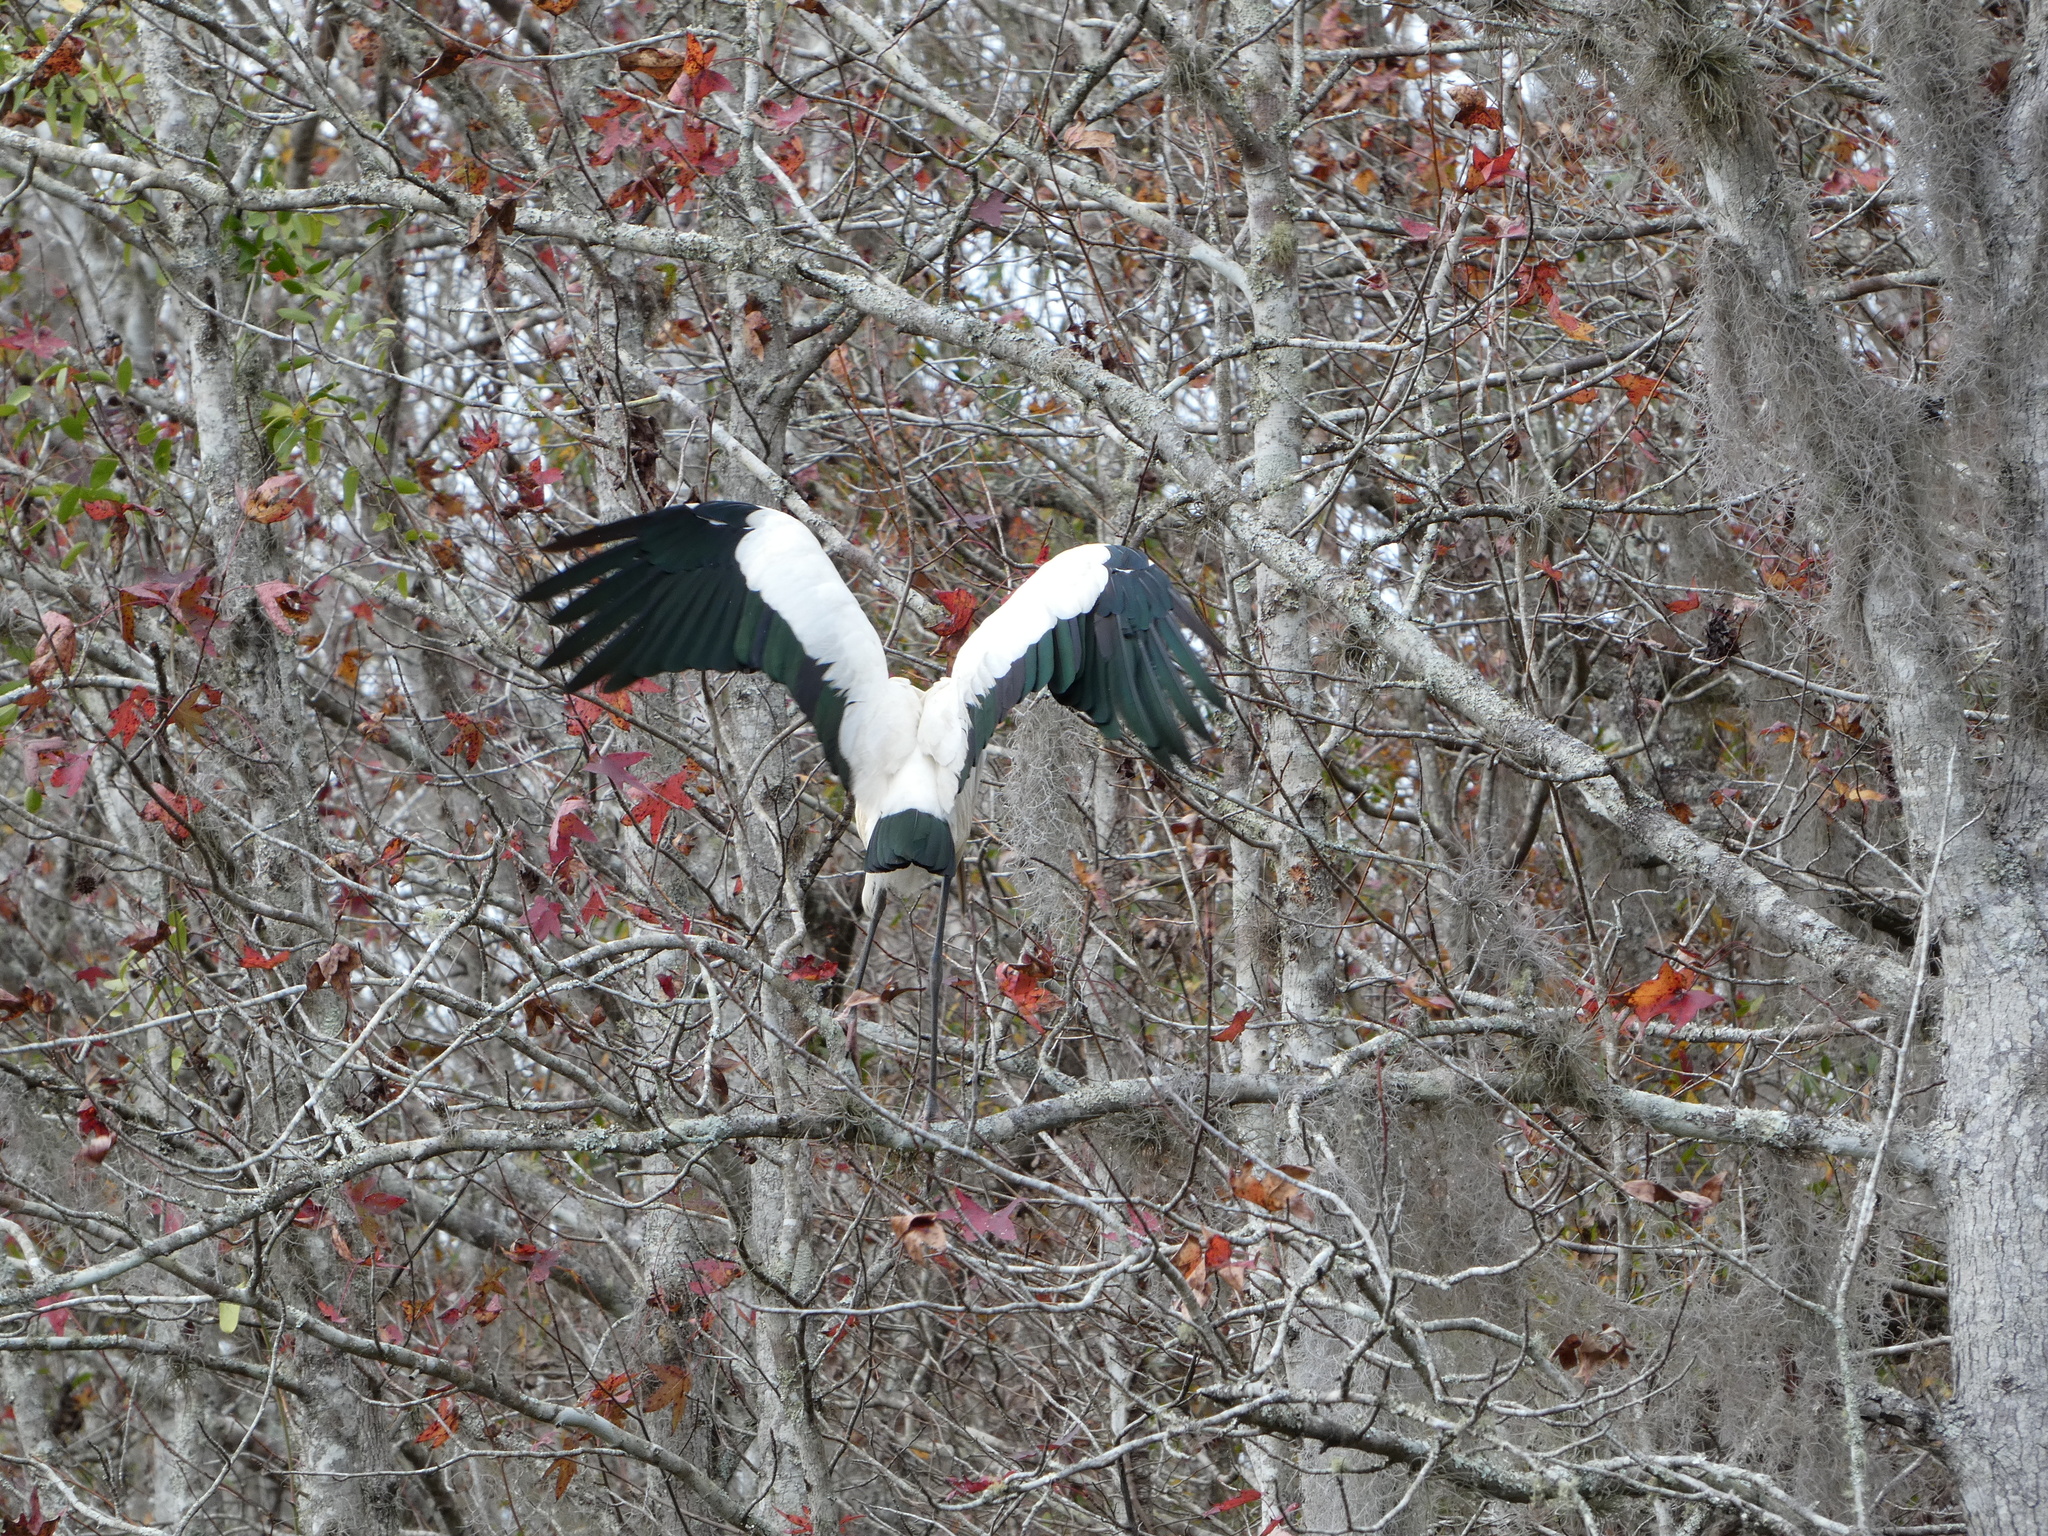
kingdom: Animalia
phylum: Chordata
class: Aves
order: Ciconiiformes
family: Ciconiidae
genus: Mycteria
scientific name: Mycteria americana
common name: Wood stork
